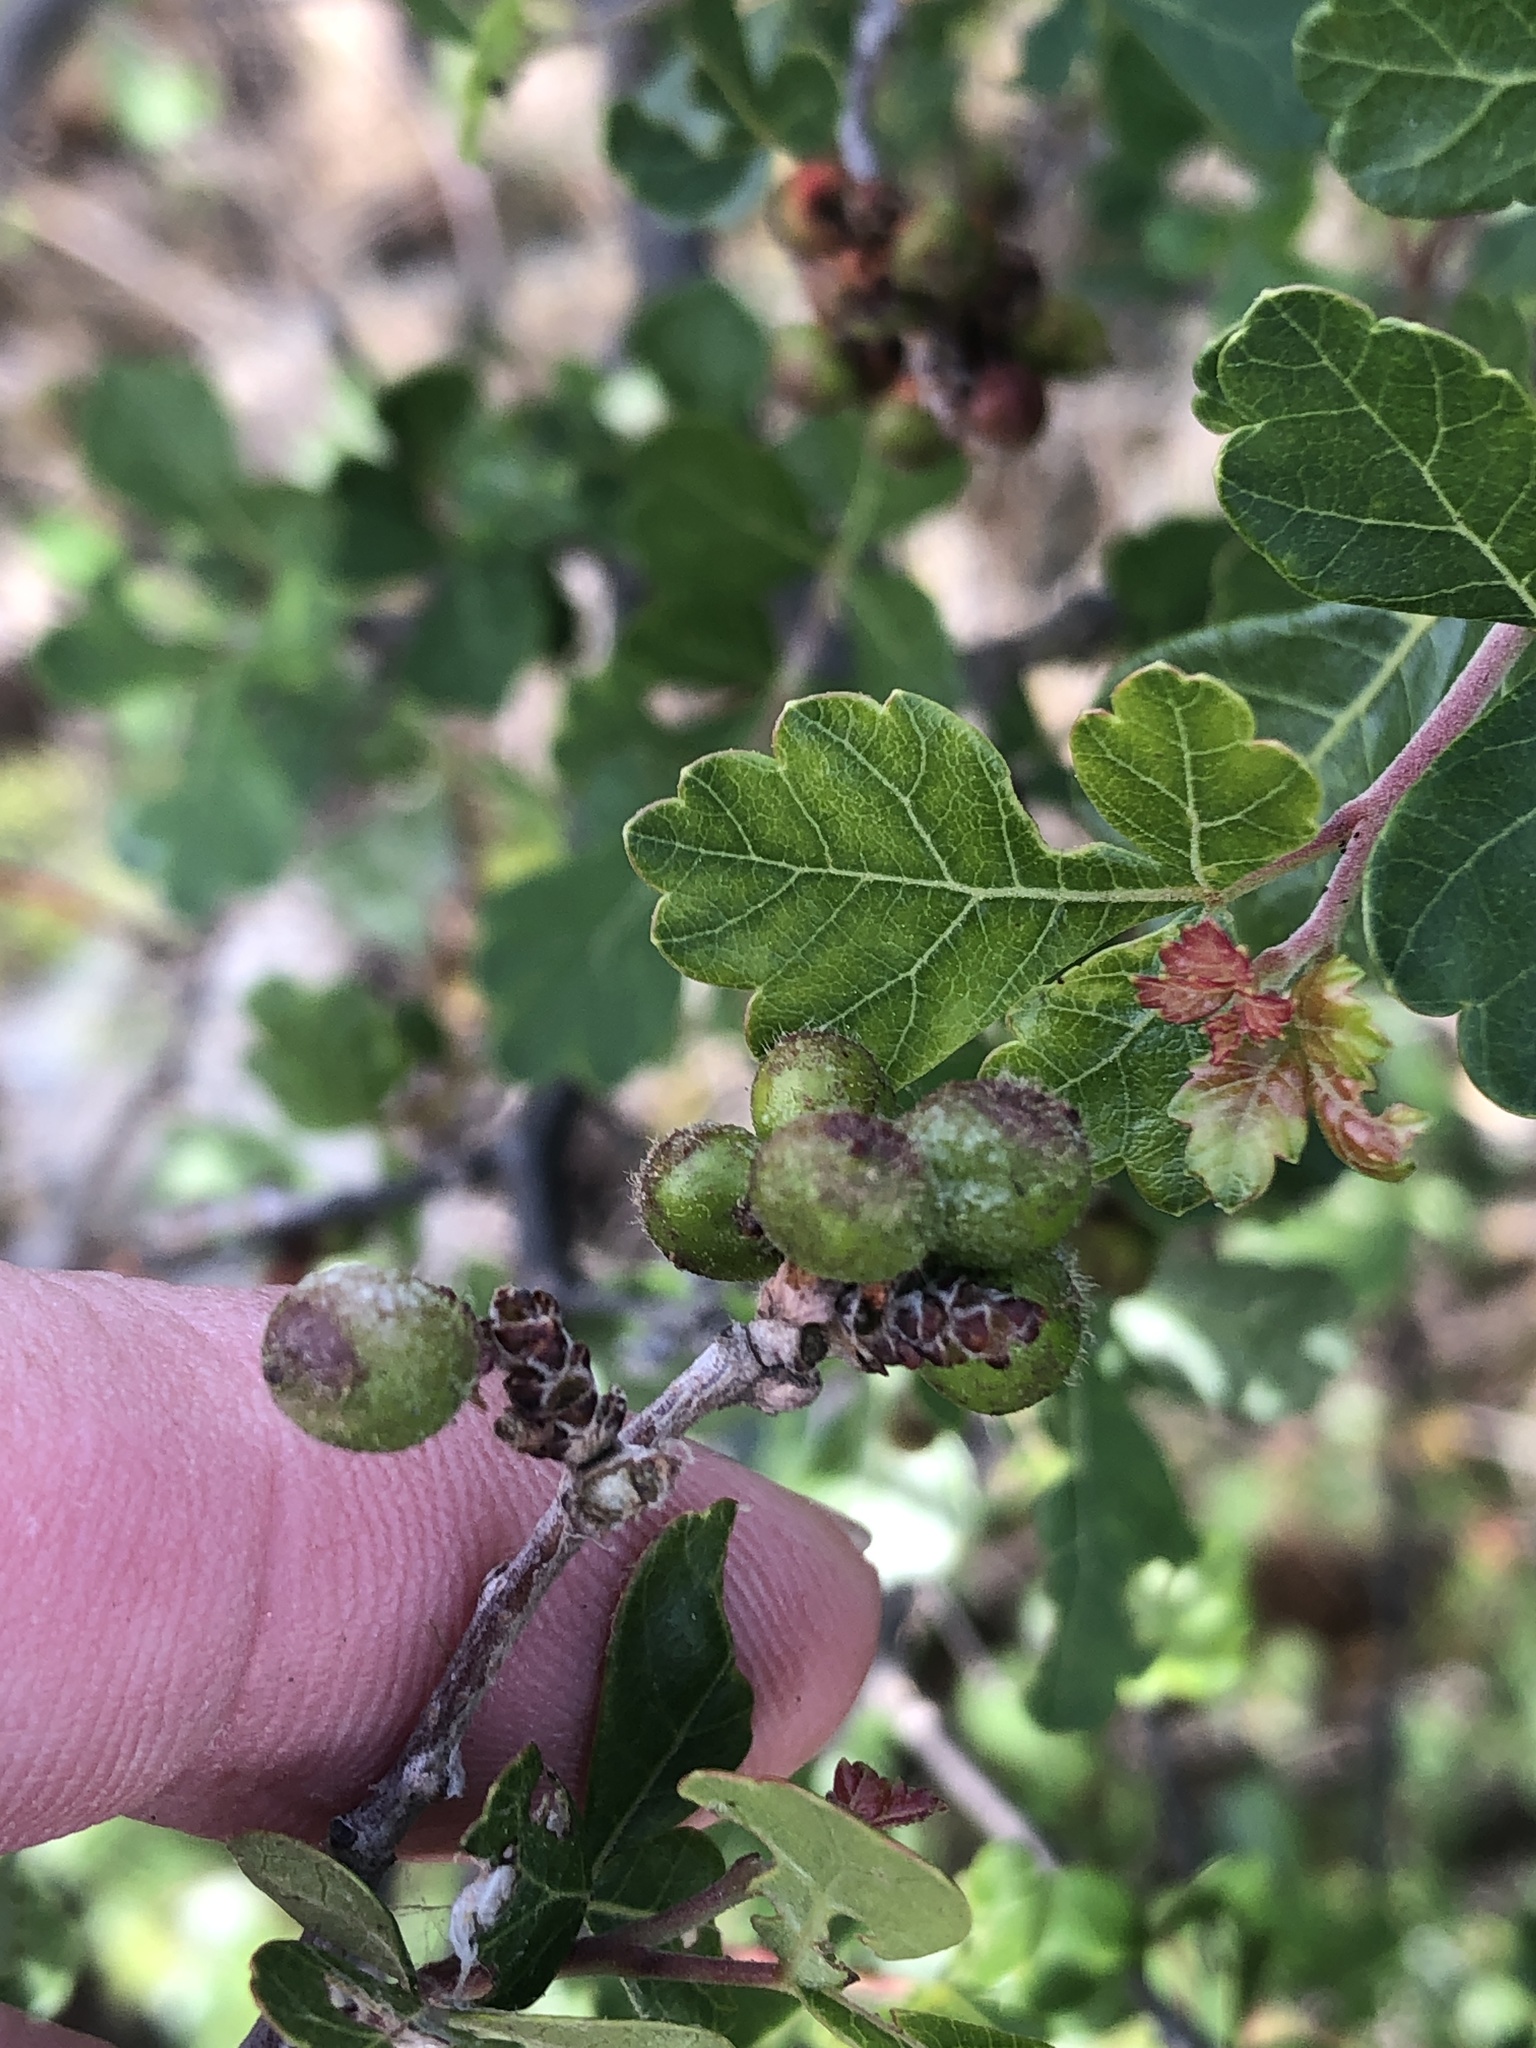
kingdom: Plantae
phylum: Tracheophyta
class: Magnoliopsida
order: Sapindales
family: Anacardiaceae
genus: Rhus
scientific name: Rhus aromatica
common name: Aromatic sumac
